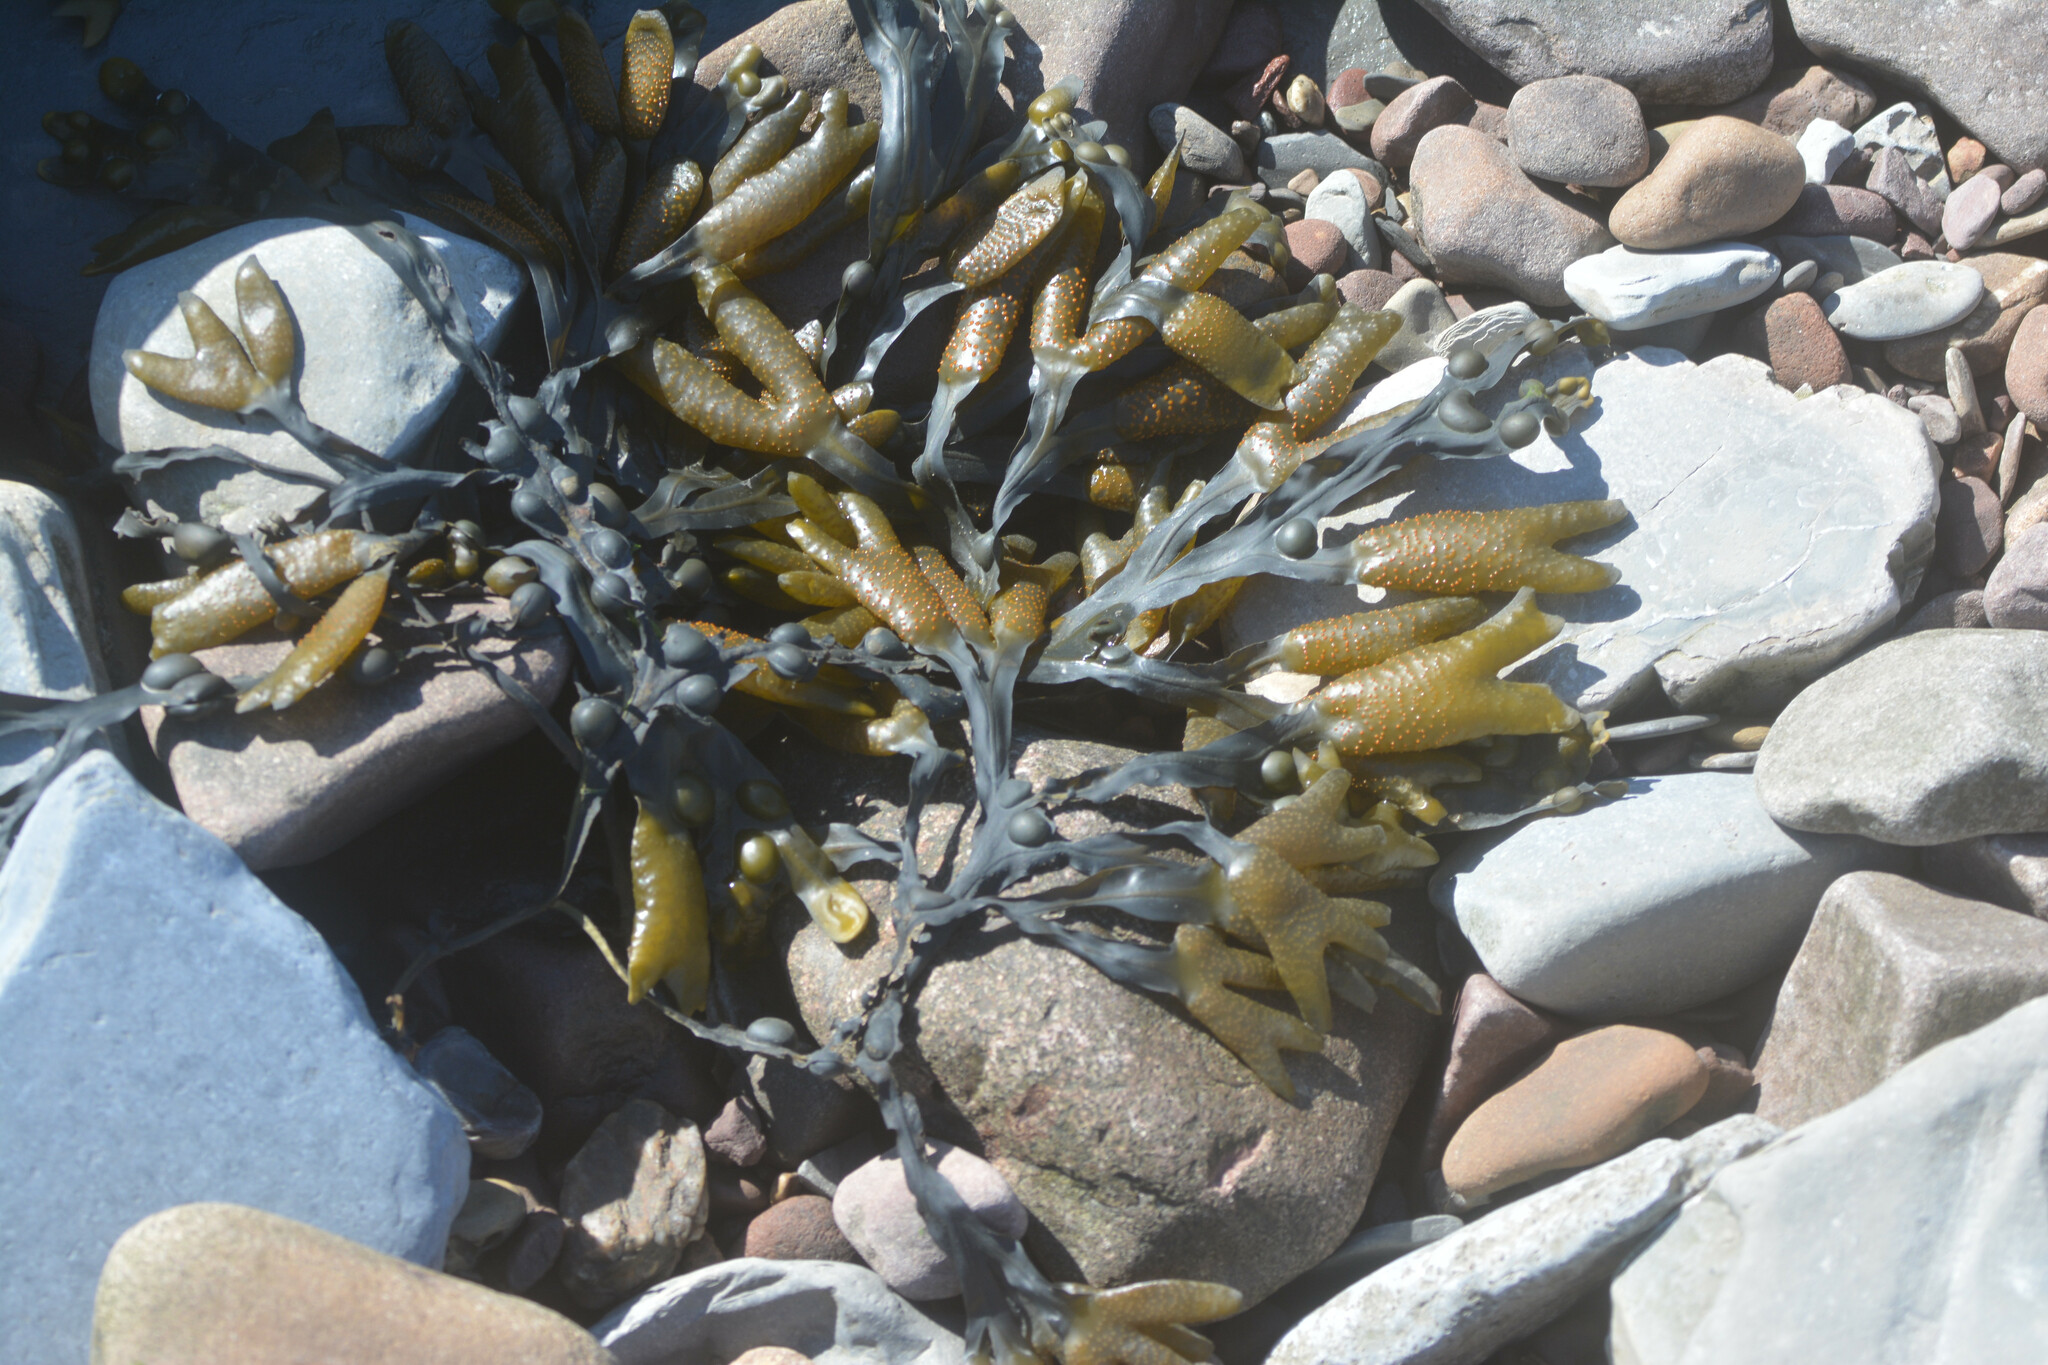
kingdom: Chromista
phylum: Ochrophyta
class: Phaeophyceae
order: Fucales
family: Fucaceae
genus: Fucus
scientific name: Fucus vesiculosus
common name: Bladder wrack
